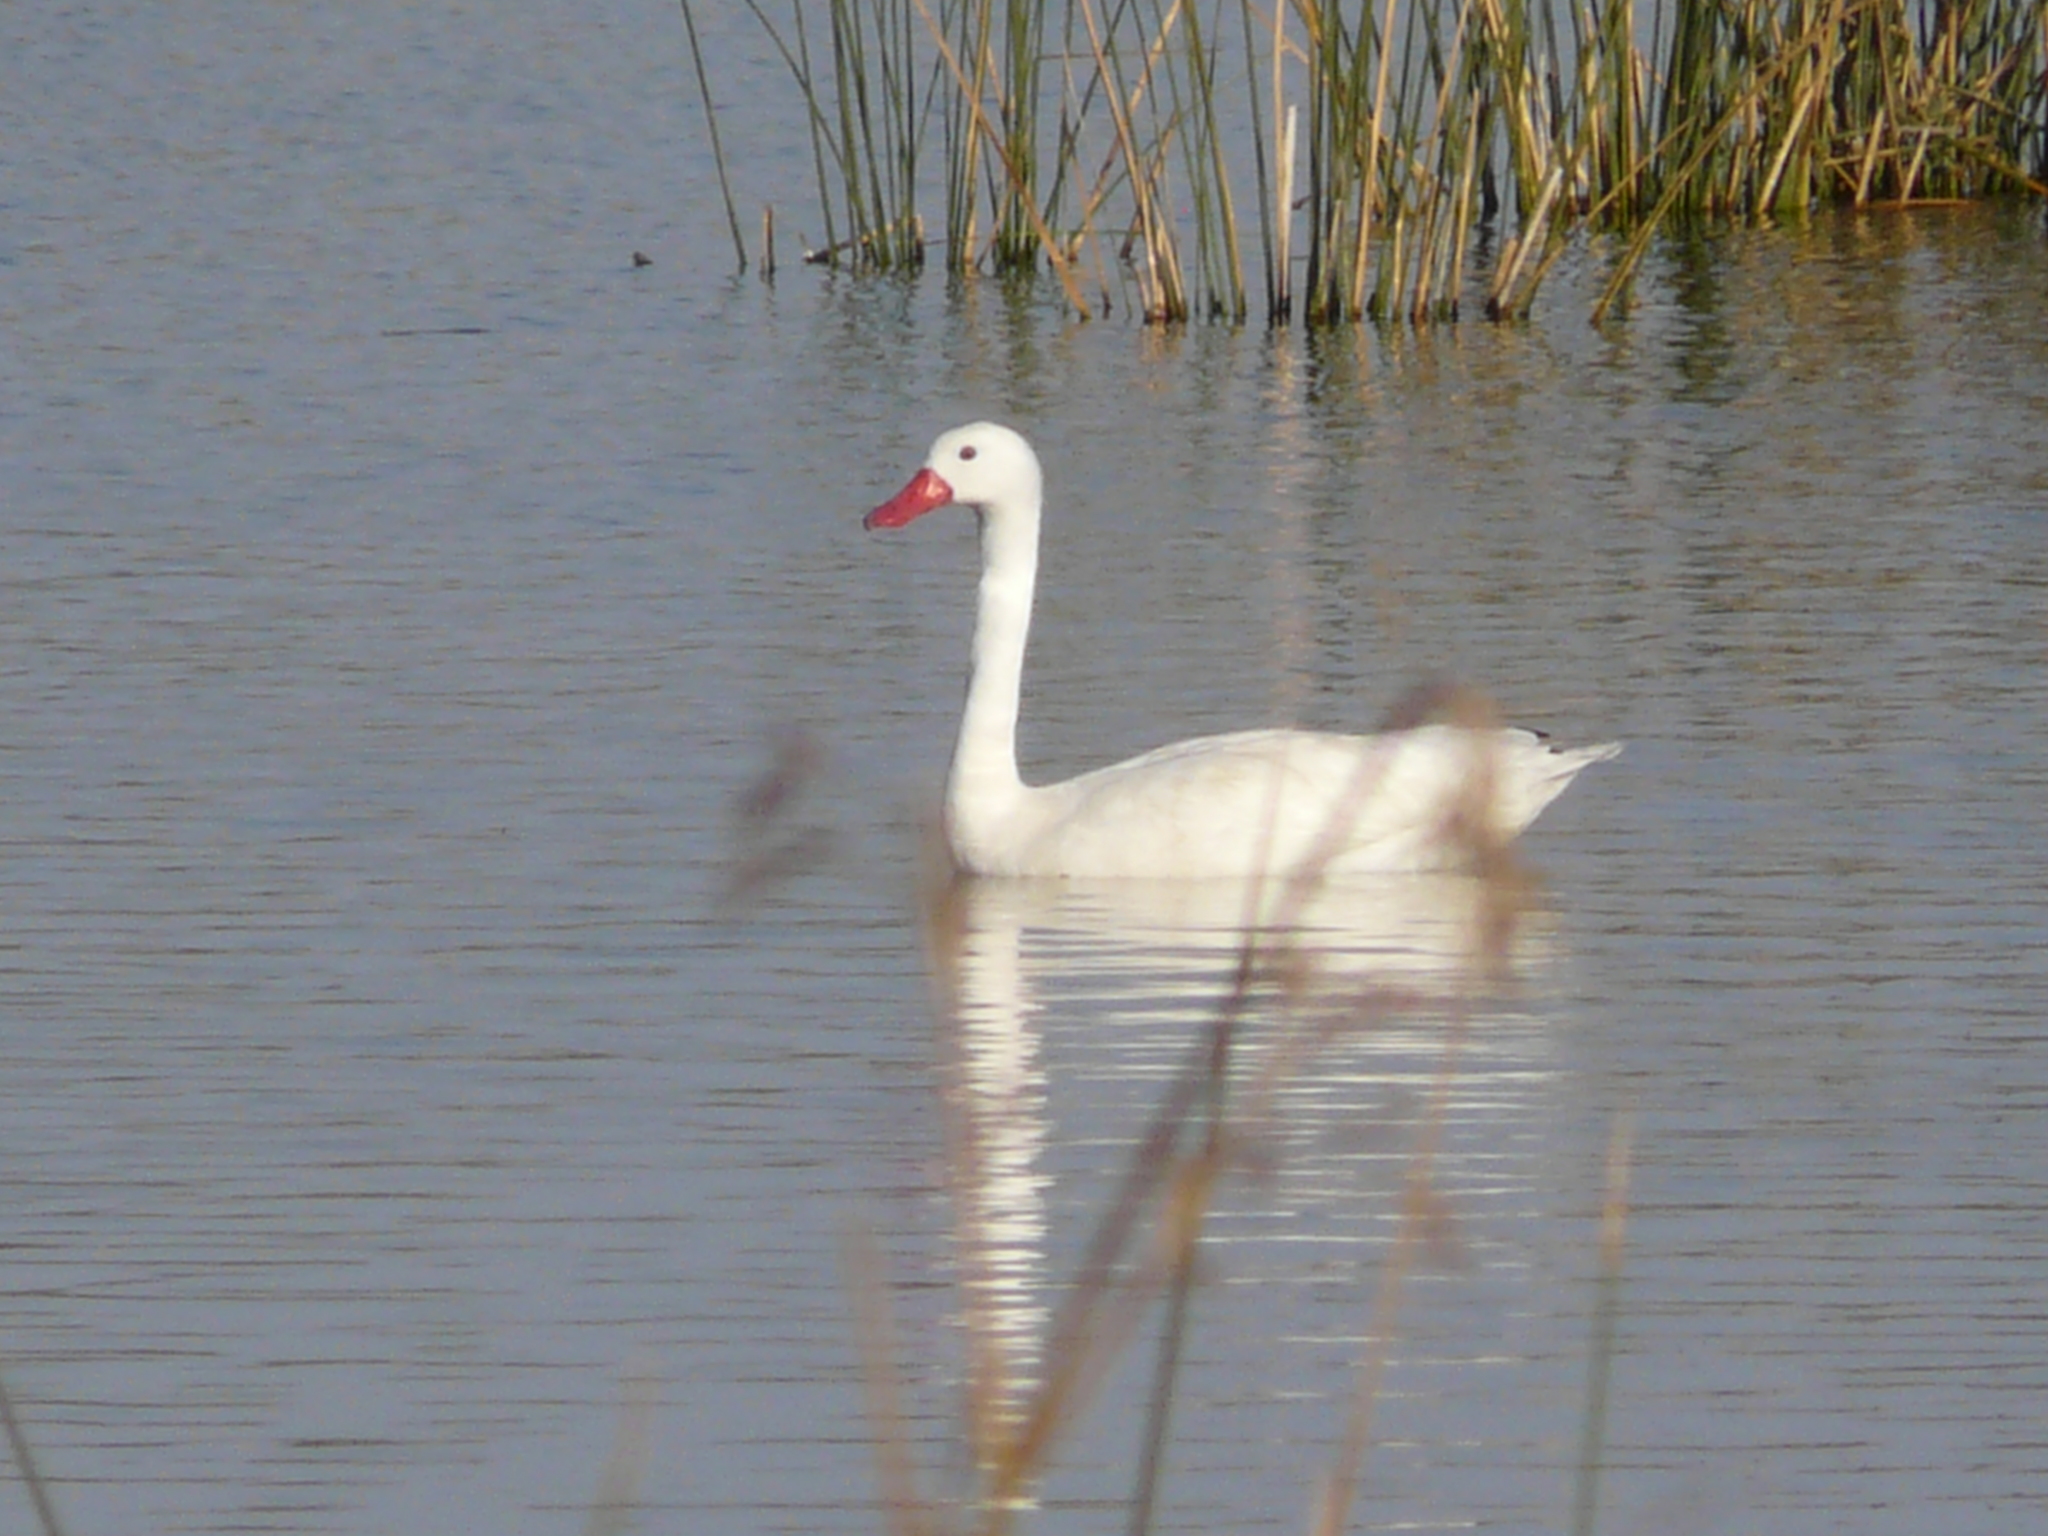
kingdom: Animalia
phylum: Chordata
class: Aves
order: Anseriformes
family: Anatidae
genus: Coscoroba
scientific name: Coscoroba coscoroba
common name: Coscoroba swan
